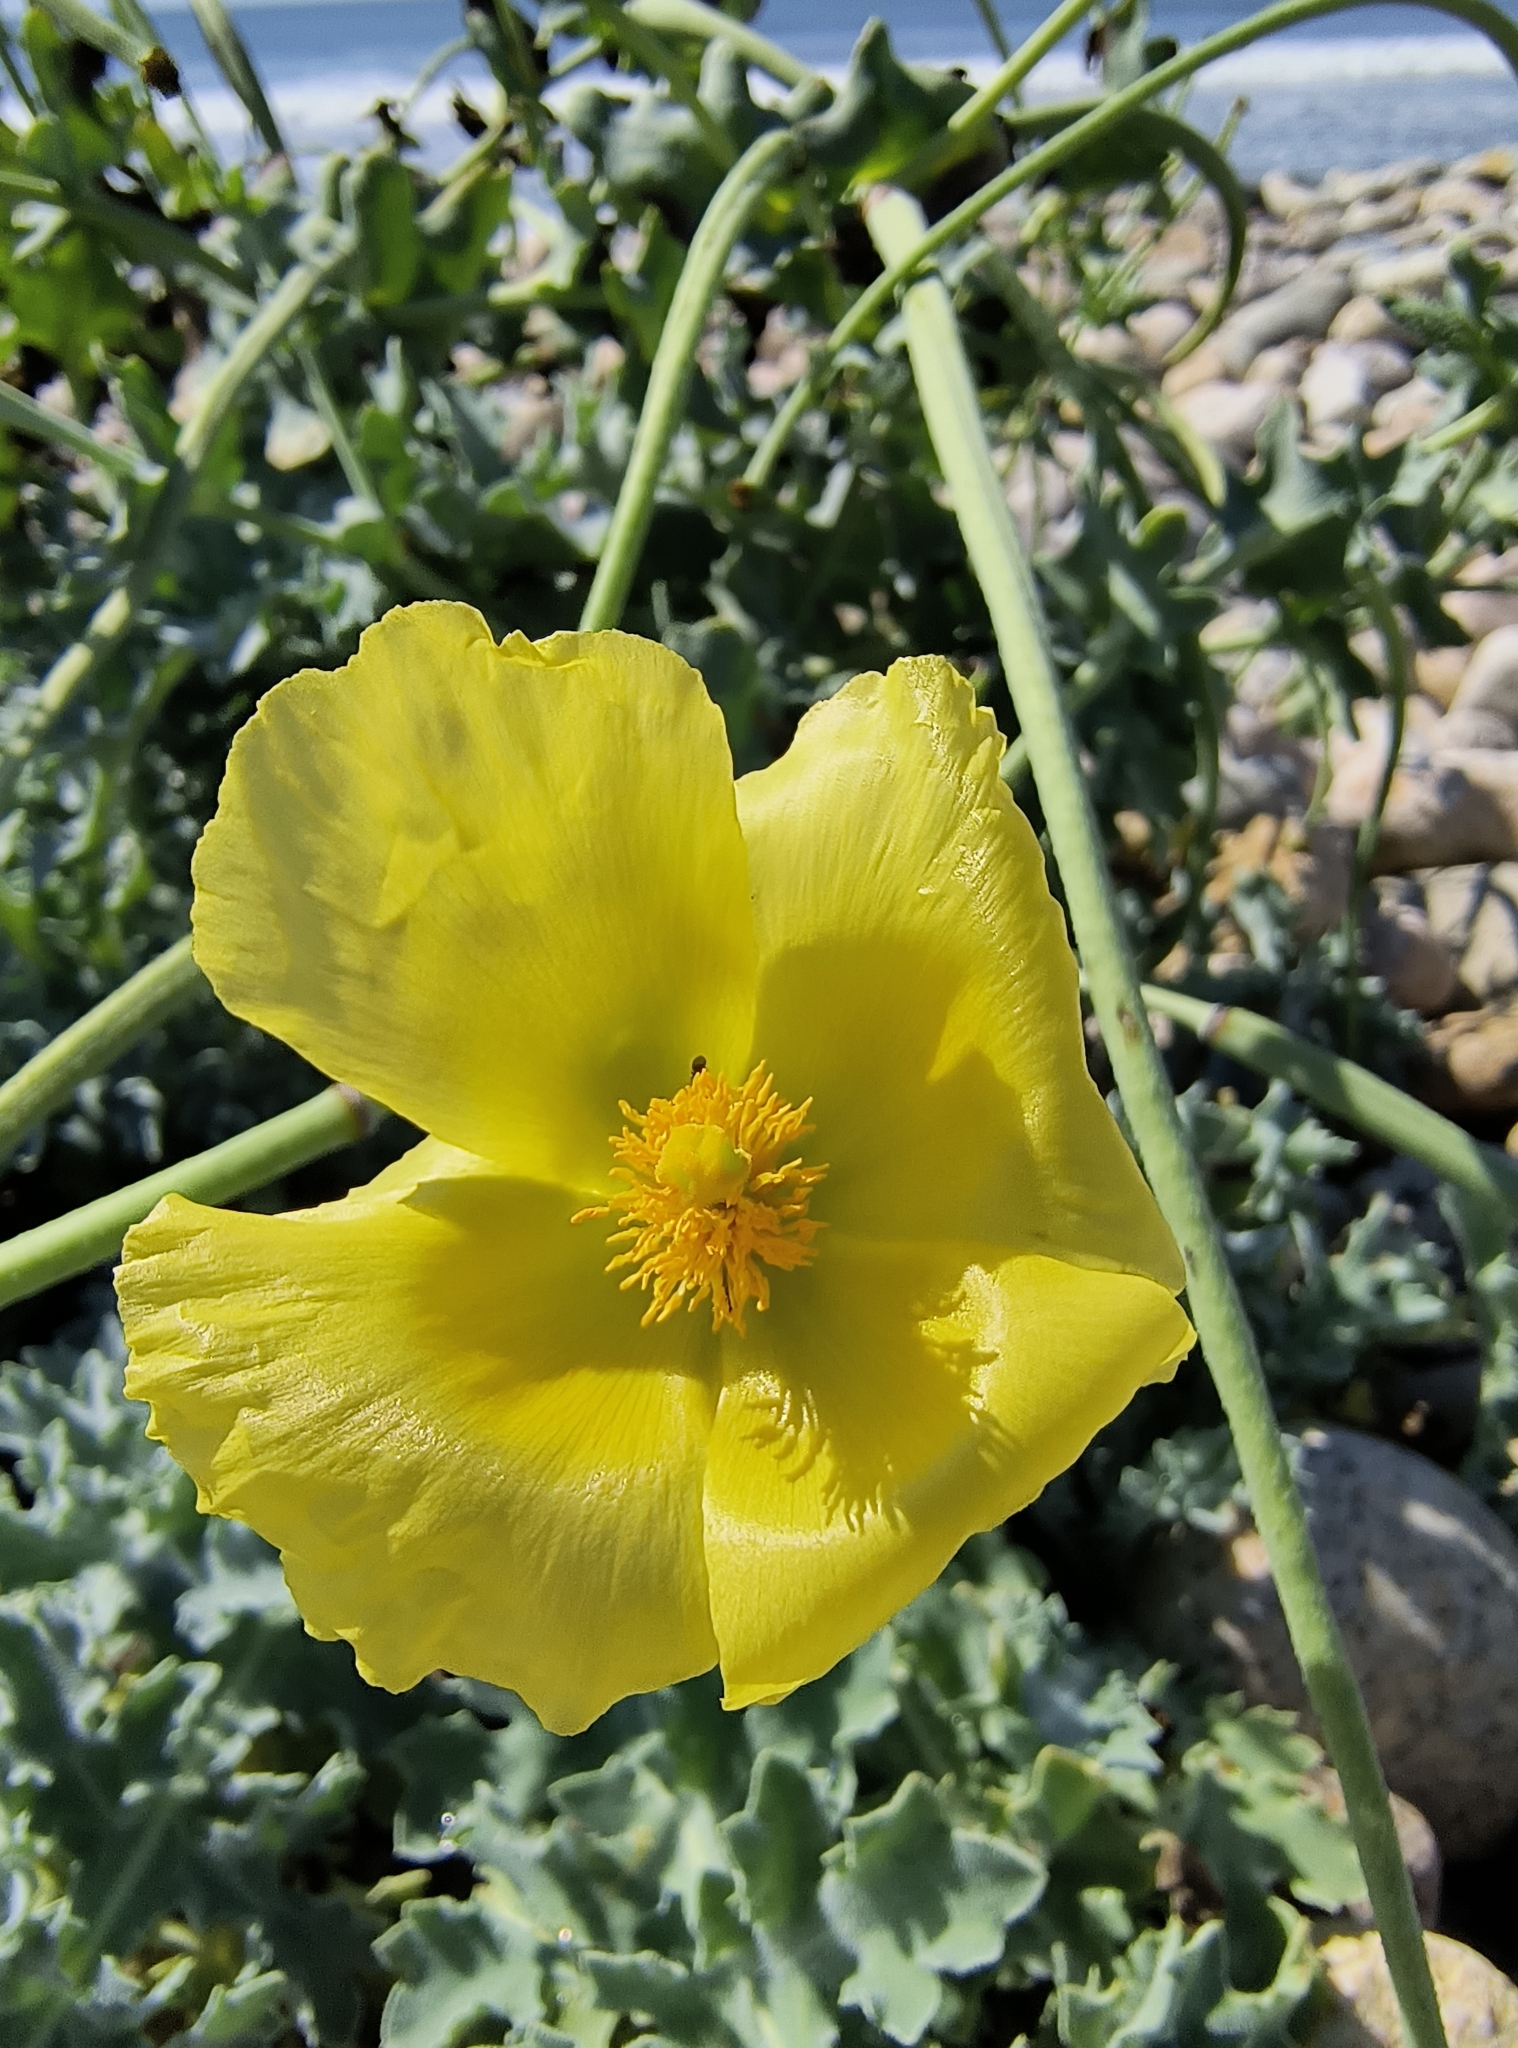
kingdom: Plantae
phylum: Tracheophyta
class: Magnoliopsida
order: Ranunculales
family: Papaveraceae
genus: Glaucium
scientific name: Glaucium flavum
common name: Yellow horned-poppy
